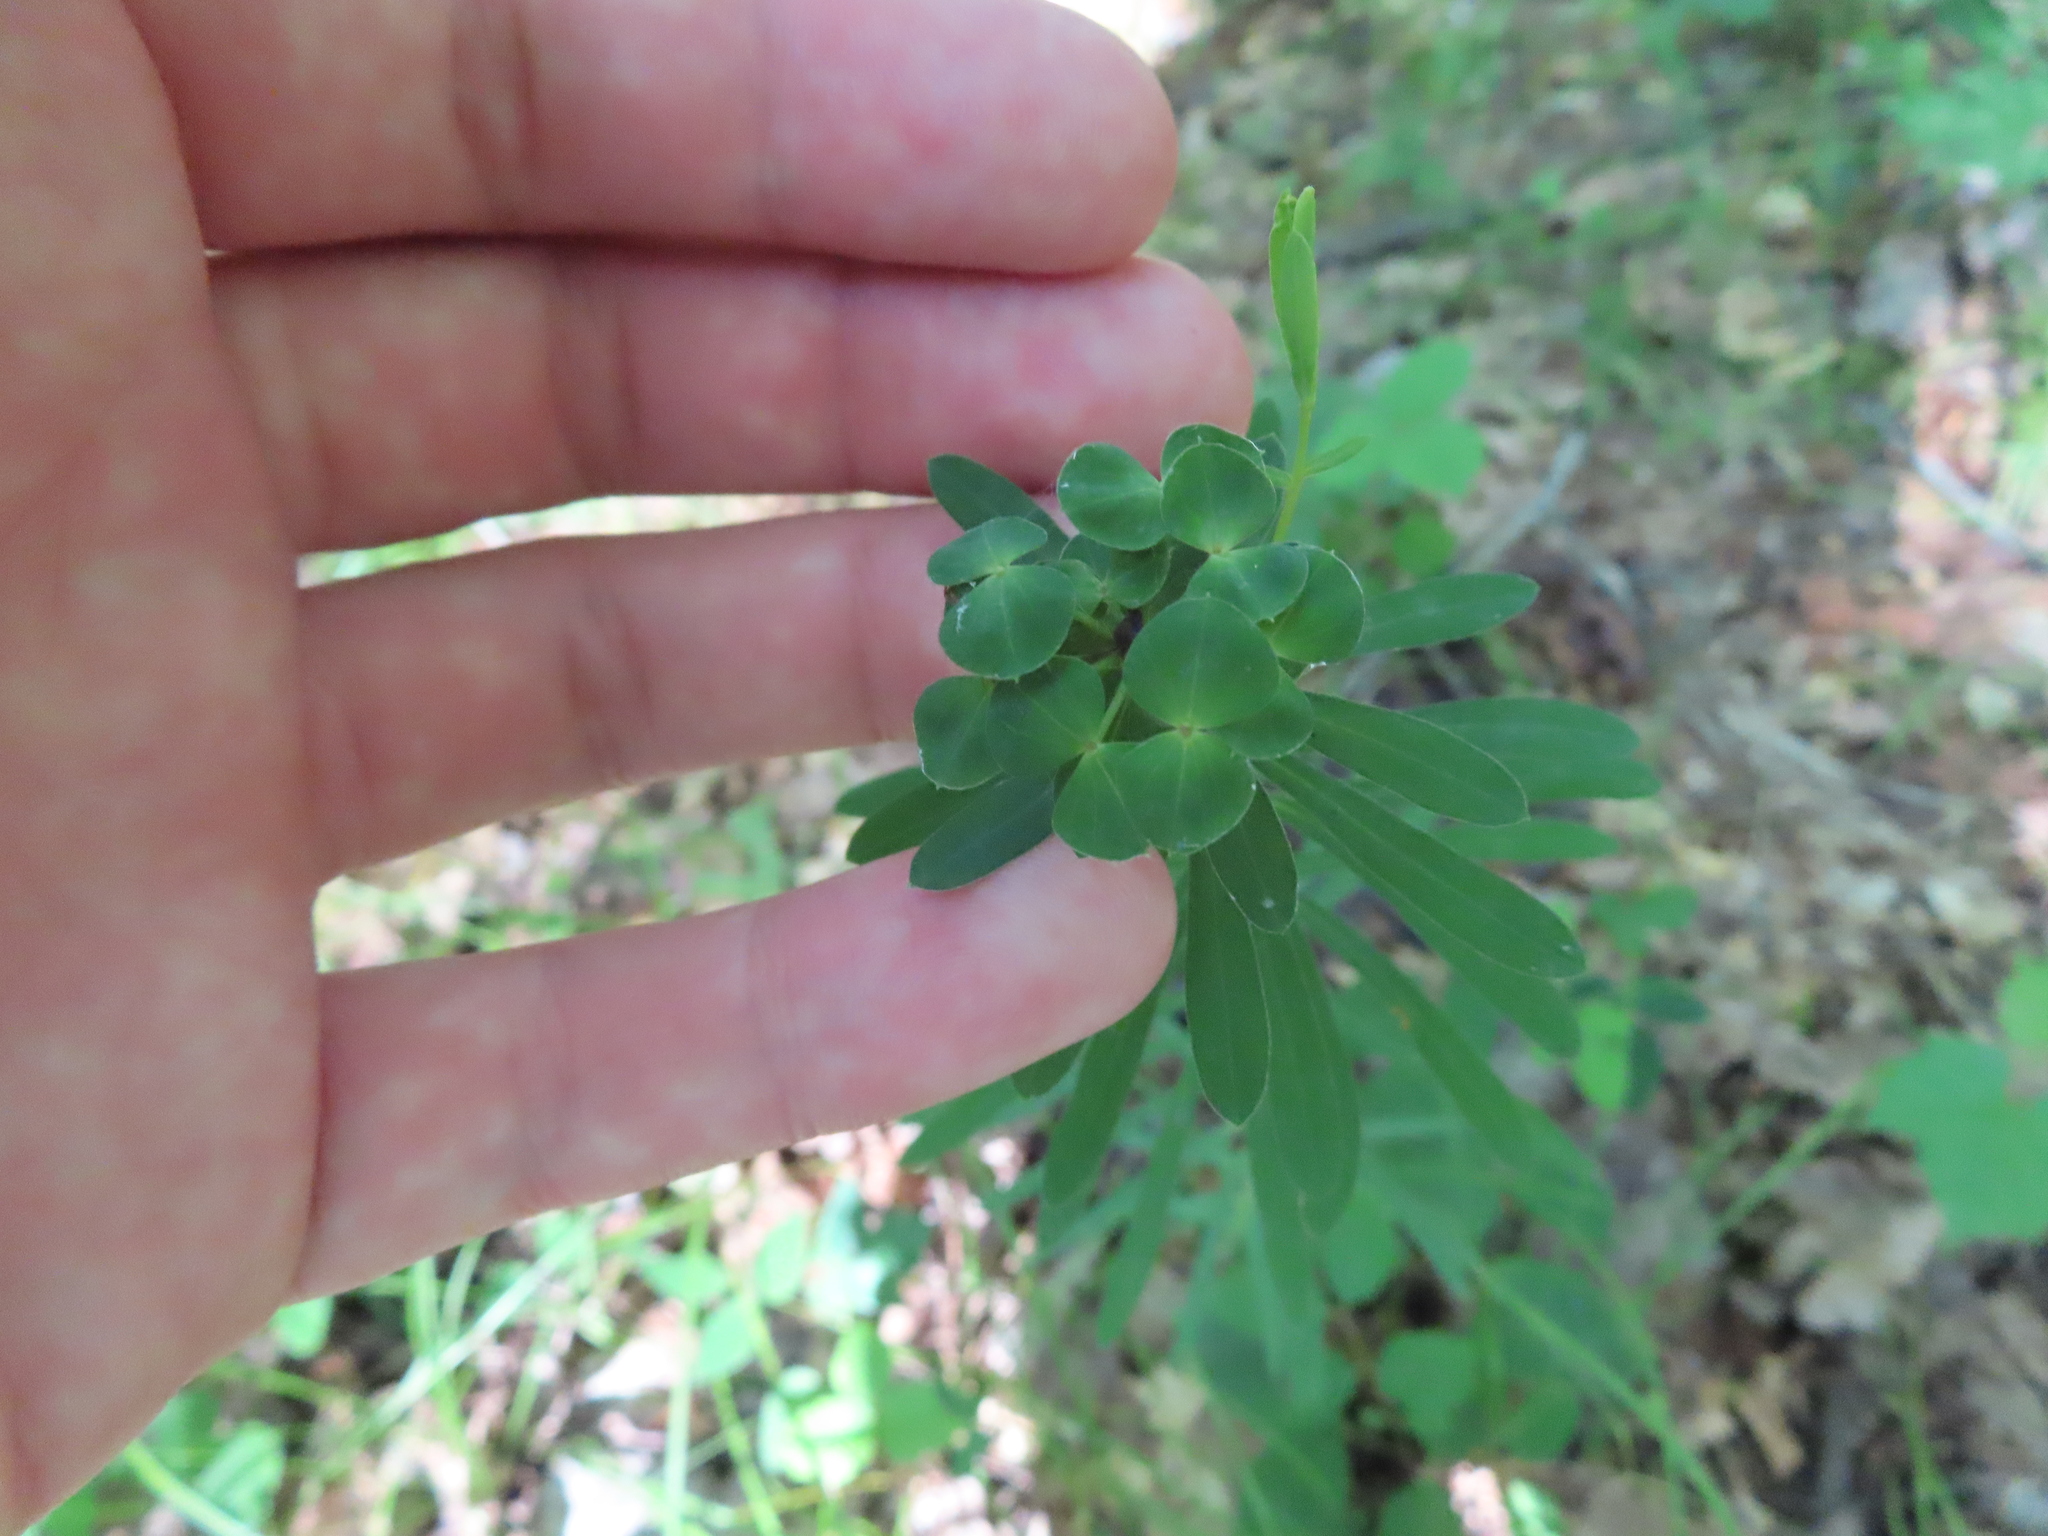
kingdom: Plantae
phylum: Tracheophyta
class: Magnoliopsida
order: Malpighiales
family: Euphorbiaceae
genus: Euphorbia
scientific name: Euphorbia esula
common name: Leafy spurge
